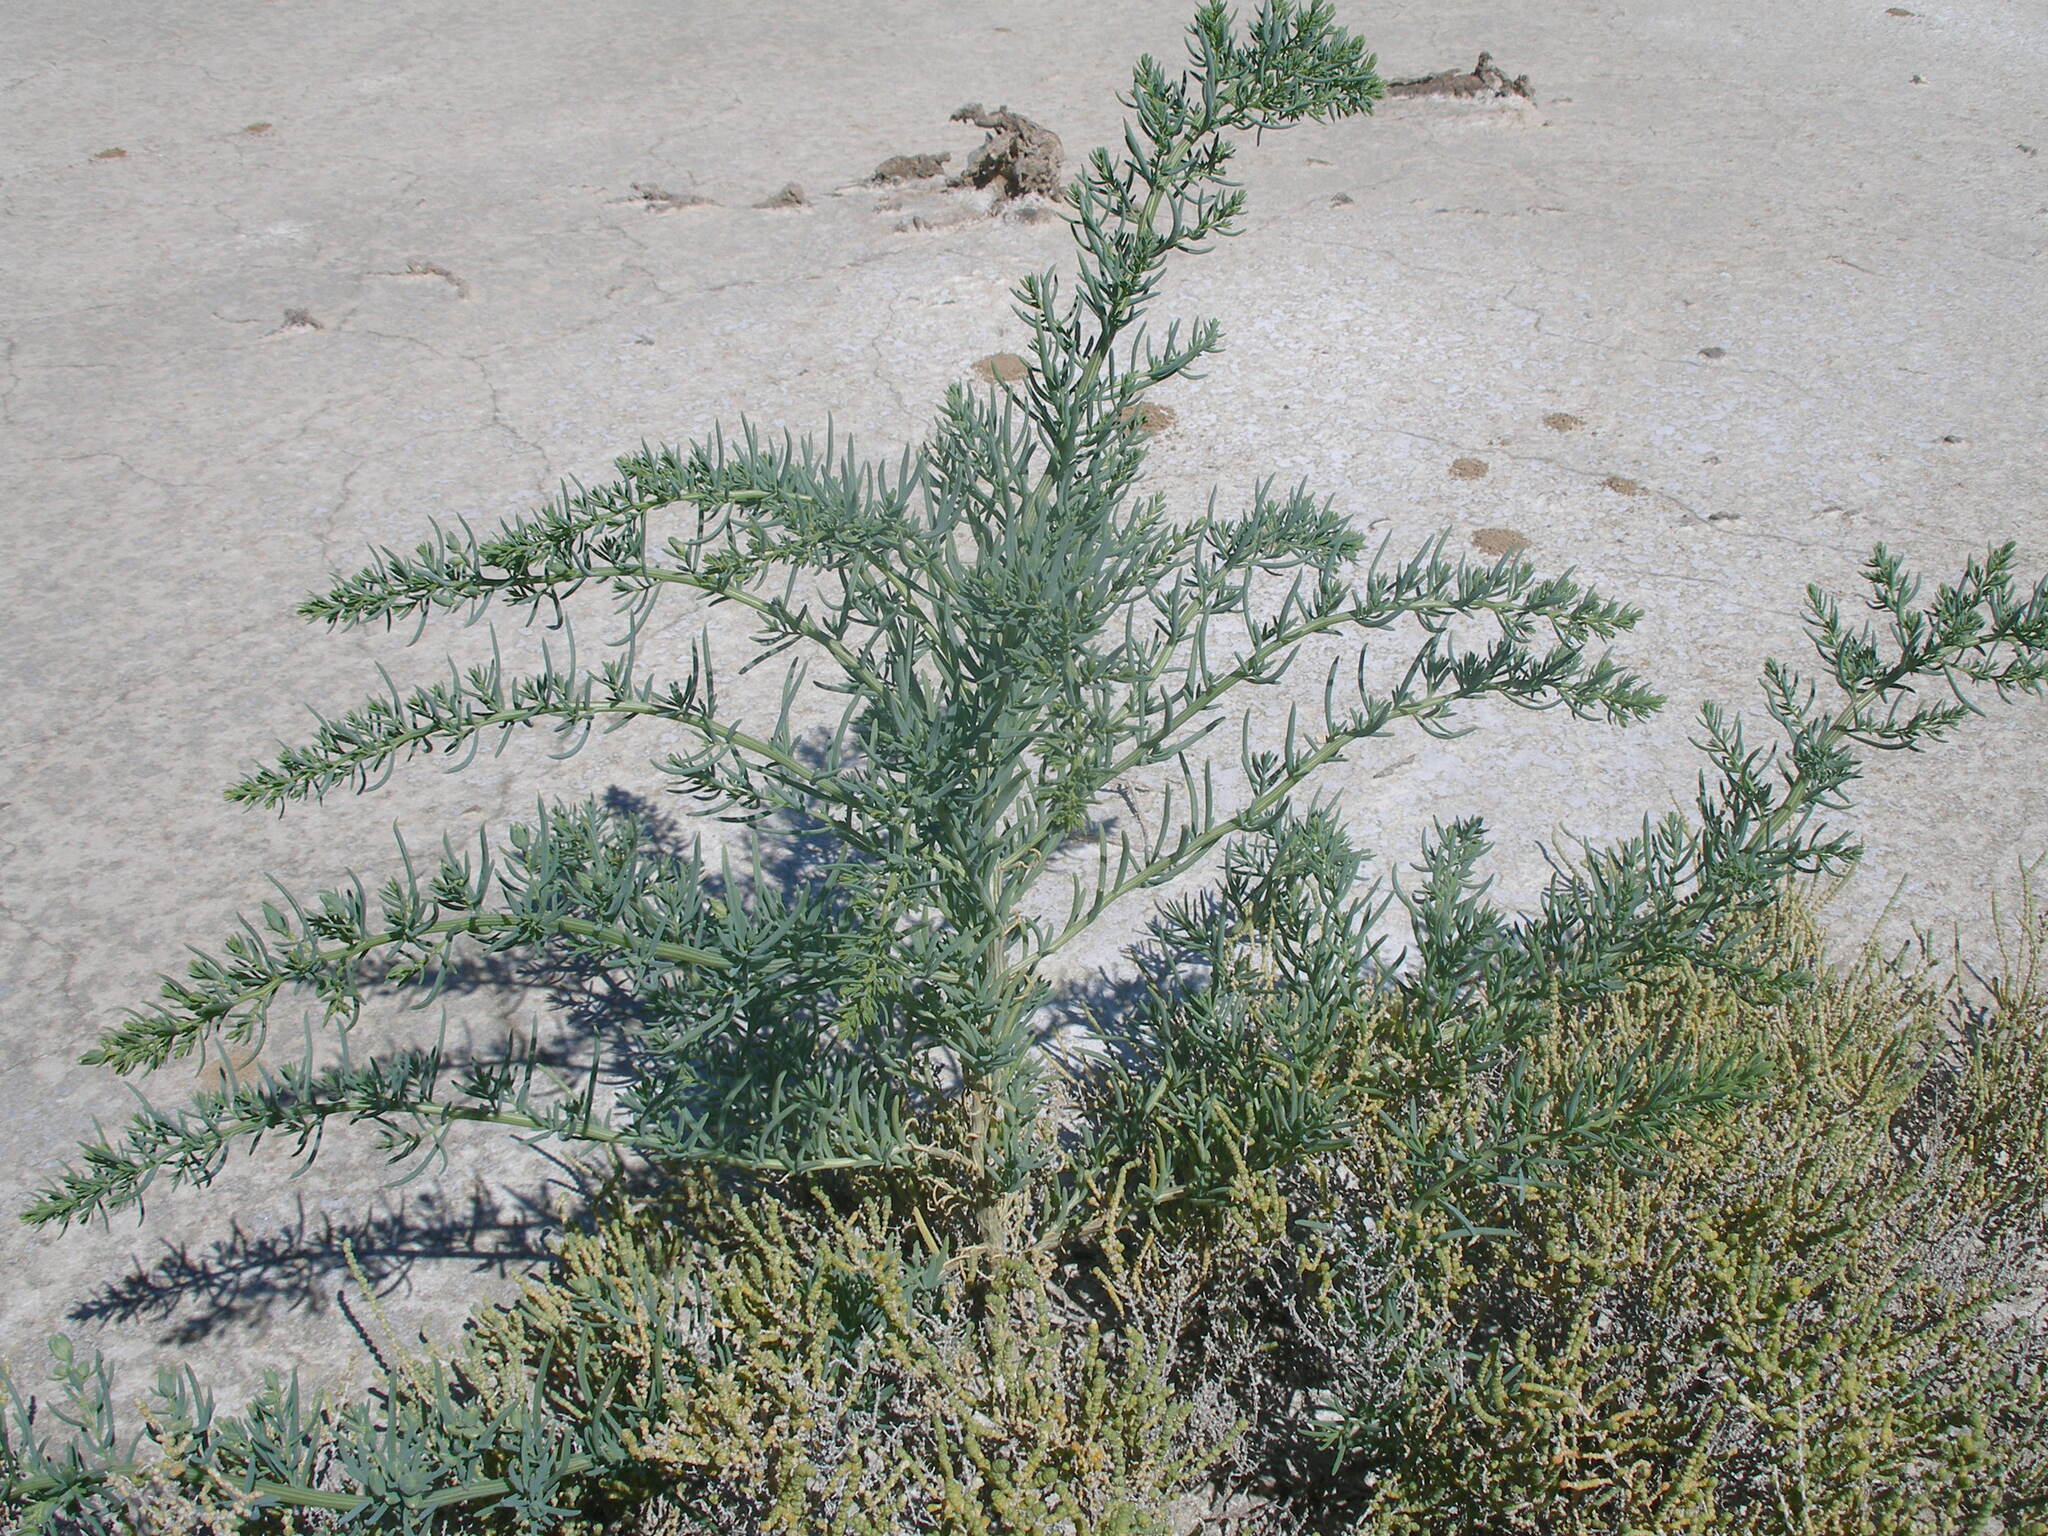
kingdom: Plantae
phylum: Tracheophyta
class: Magnoliopsida
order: Caryophyllales
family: Amaranthaceae
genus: Suaeda
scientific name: Suaeda vera
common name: Shrubby sea-blite
